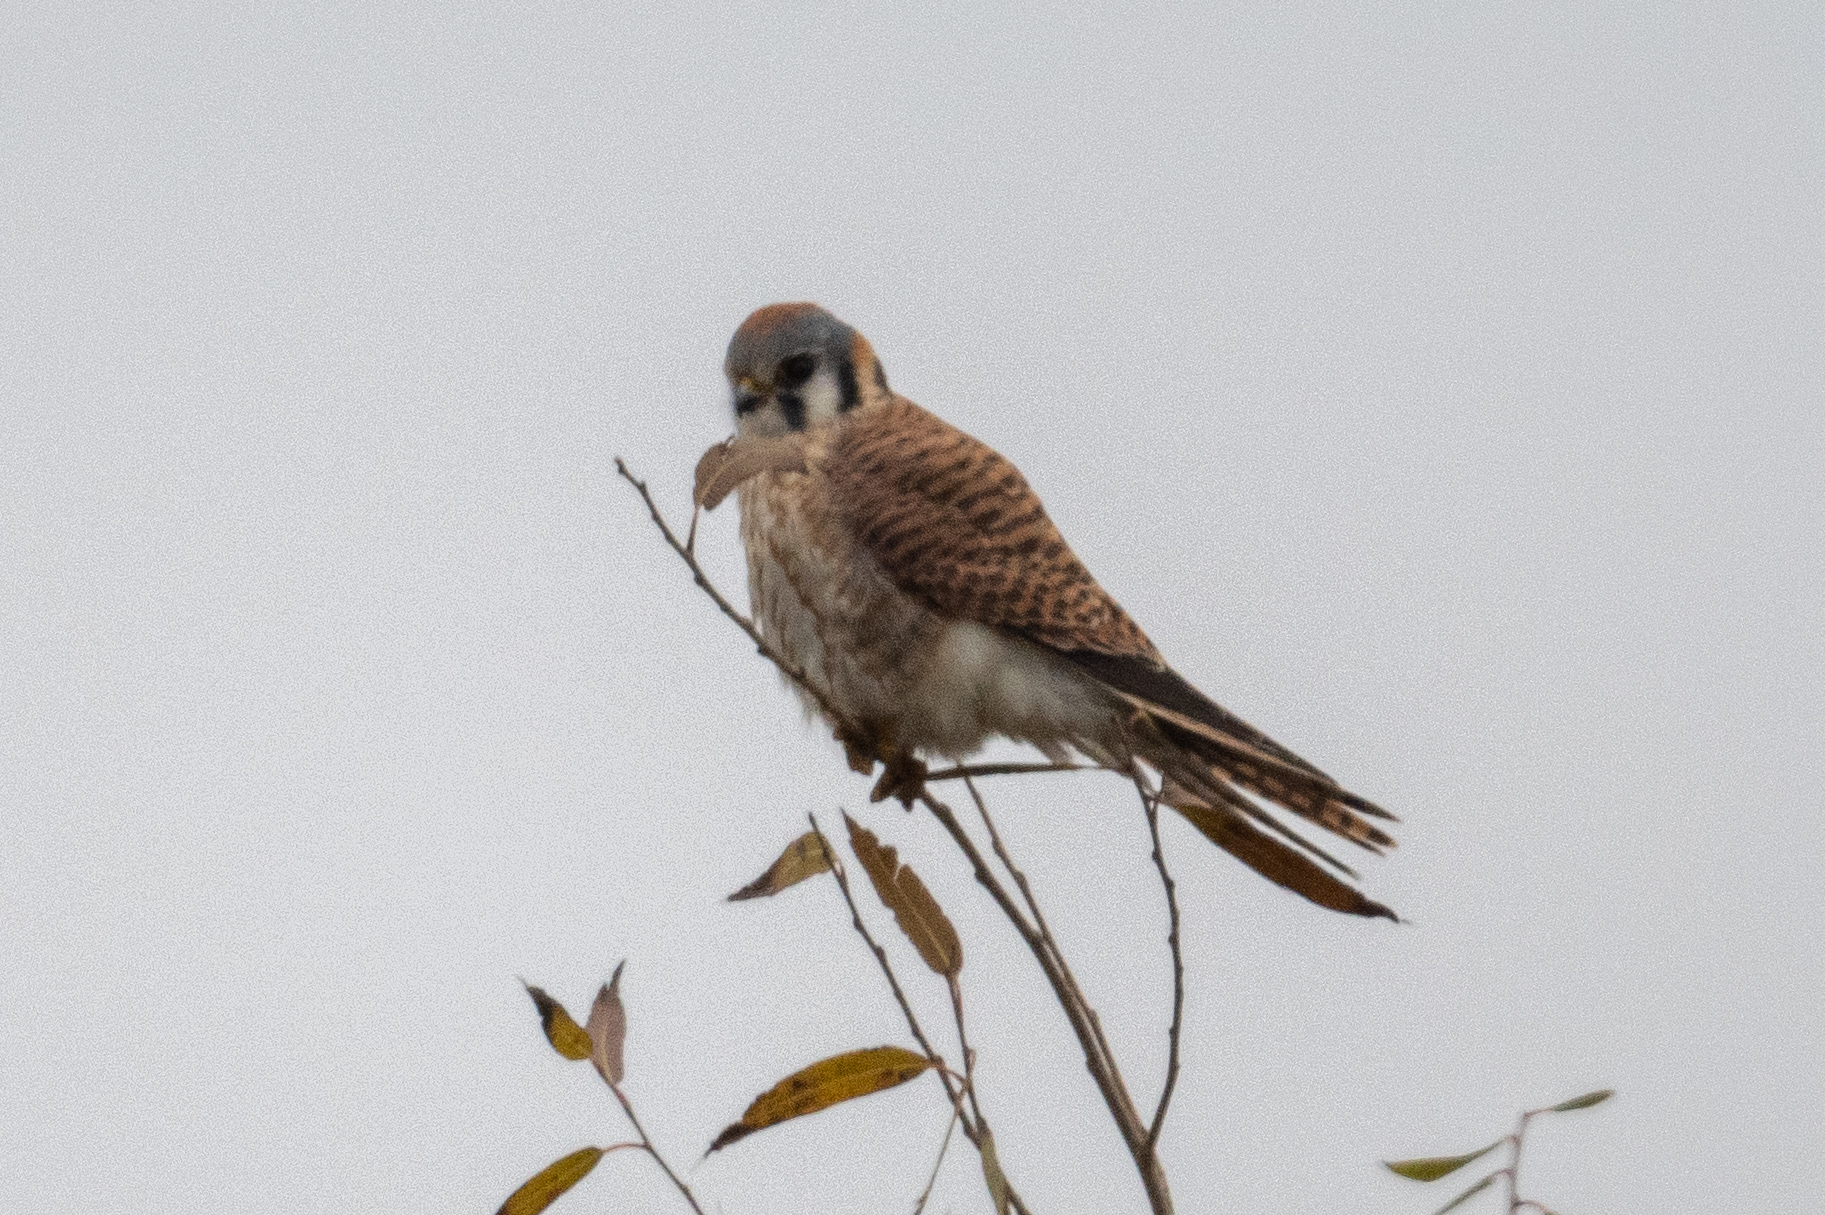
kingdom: Animalia
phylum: Chordata
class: Aves
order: Falconiformes
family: Falconidae
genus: Falco
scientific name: Falco sparverius
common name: American kestrel
